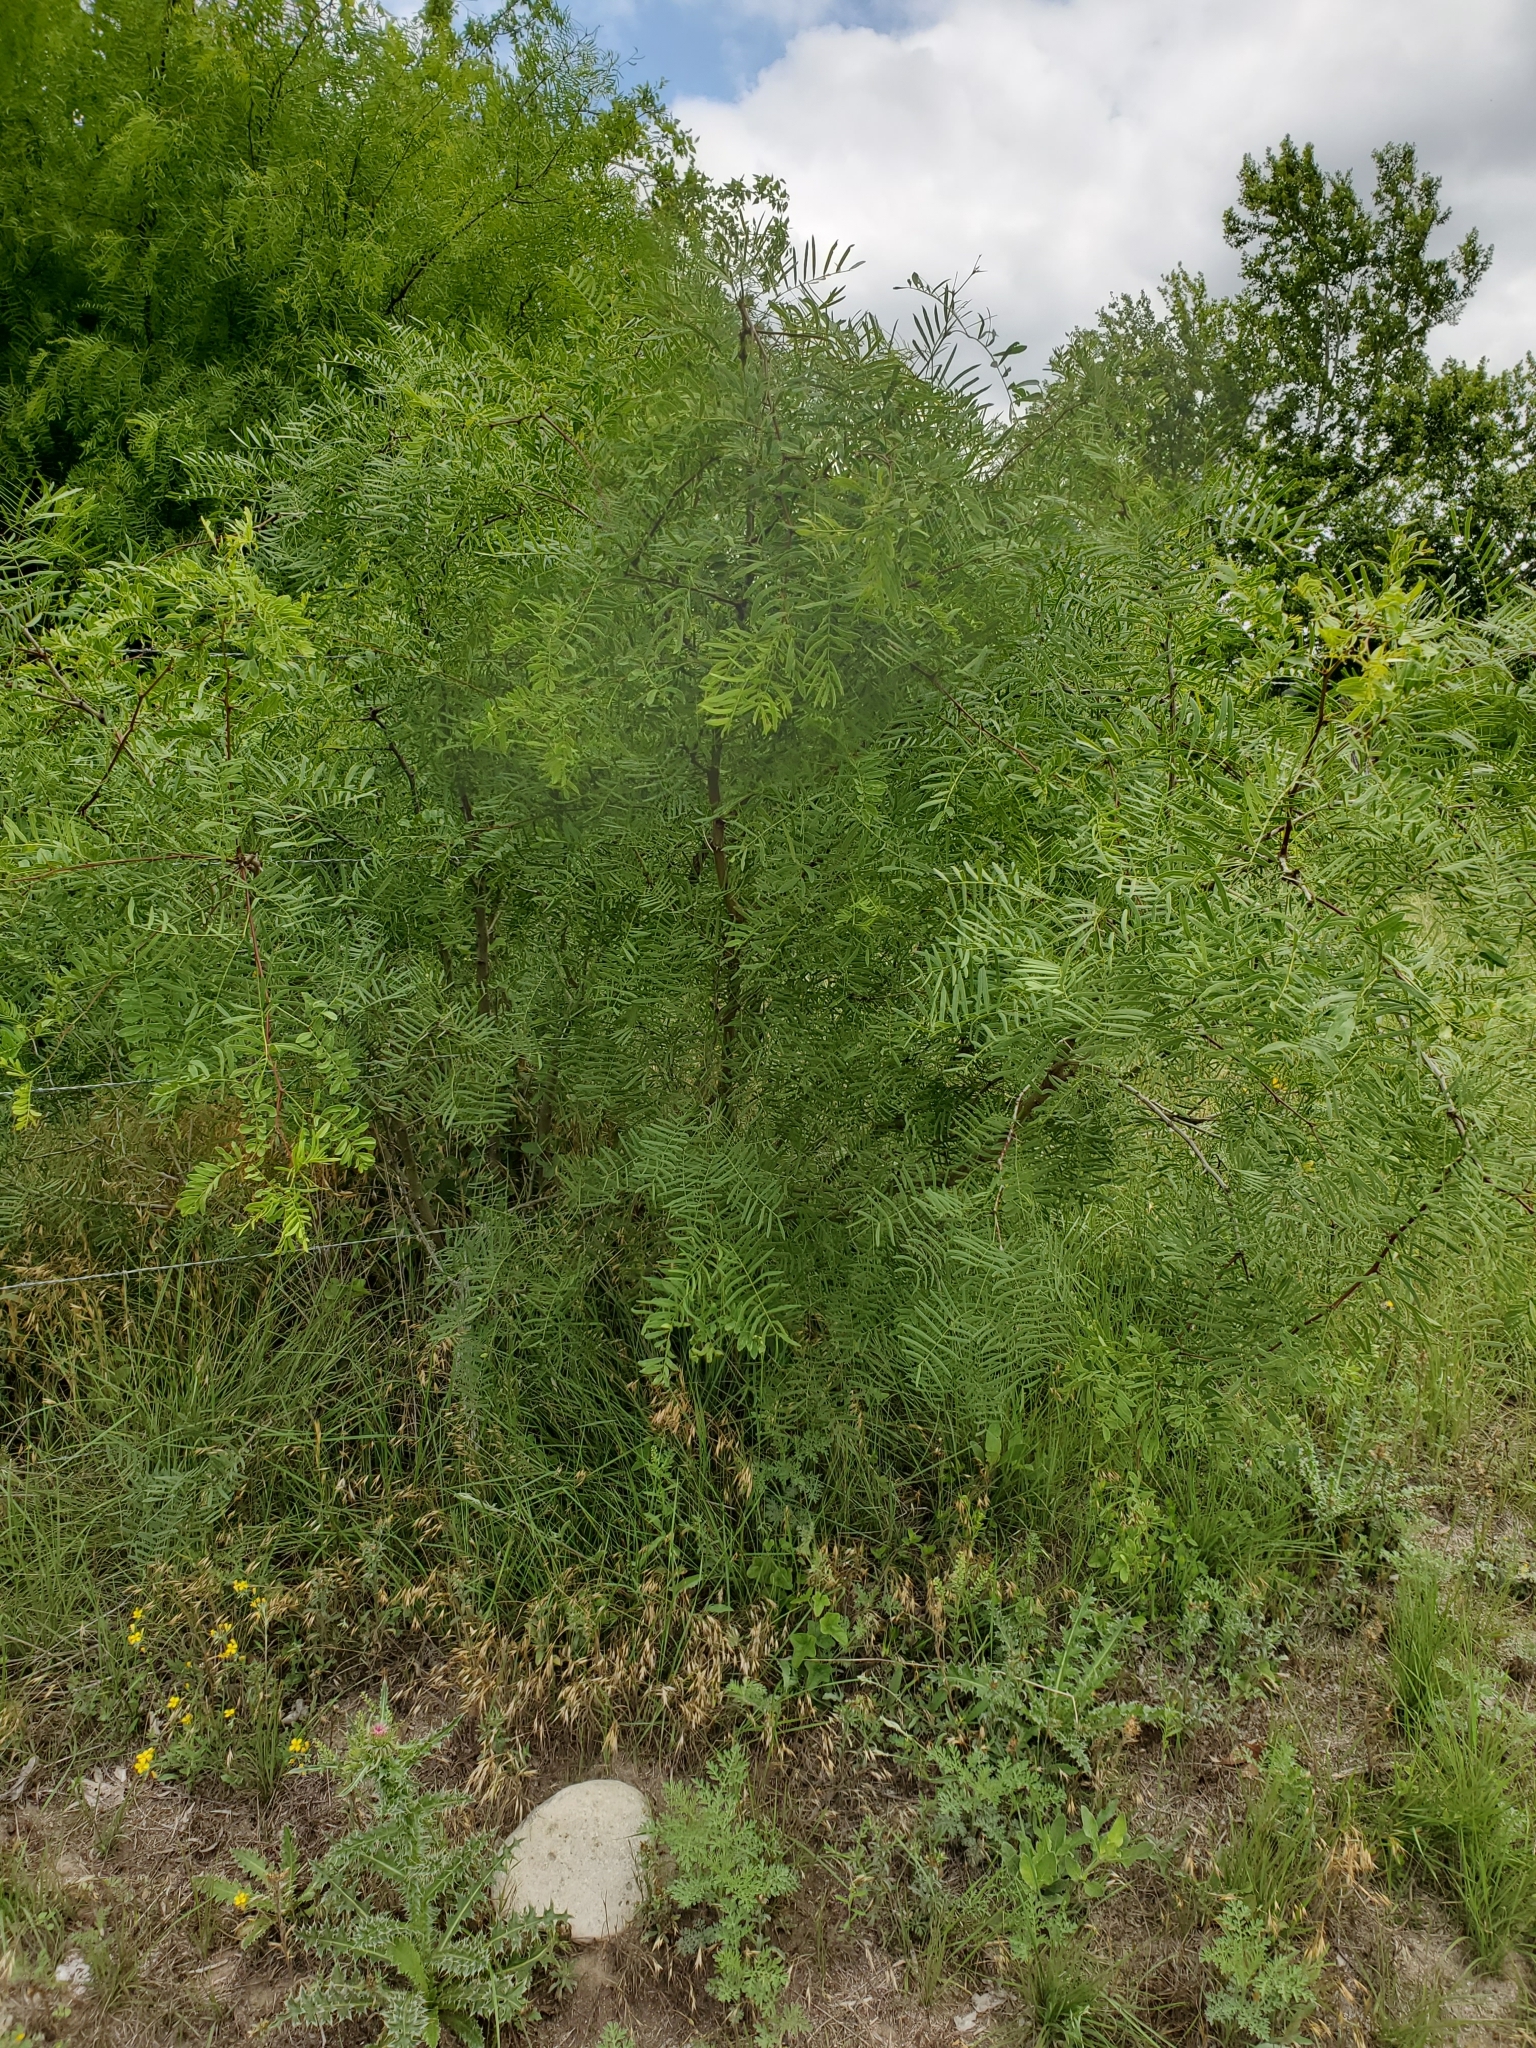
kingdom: Plantae
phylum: Tracheophyta
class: Magnoliopsida
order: Fabales
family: Fabaceae
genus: Prosopis
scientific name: Prosopis glandulosa
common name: Honey mesquite
